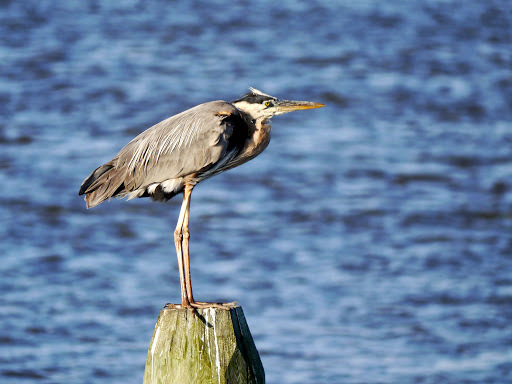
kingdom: Animalia
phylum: Chordata
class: Aves
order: Pelecaniformes
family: Ardeidae
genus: Ardea
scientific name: Ardea herodias
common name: Great blue heron
